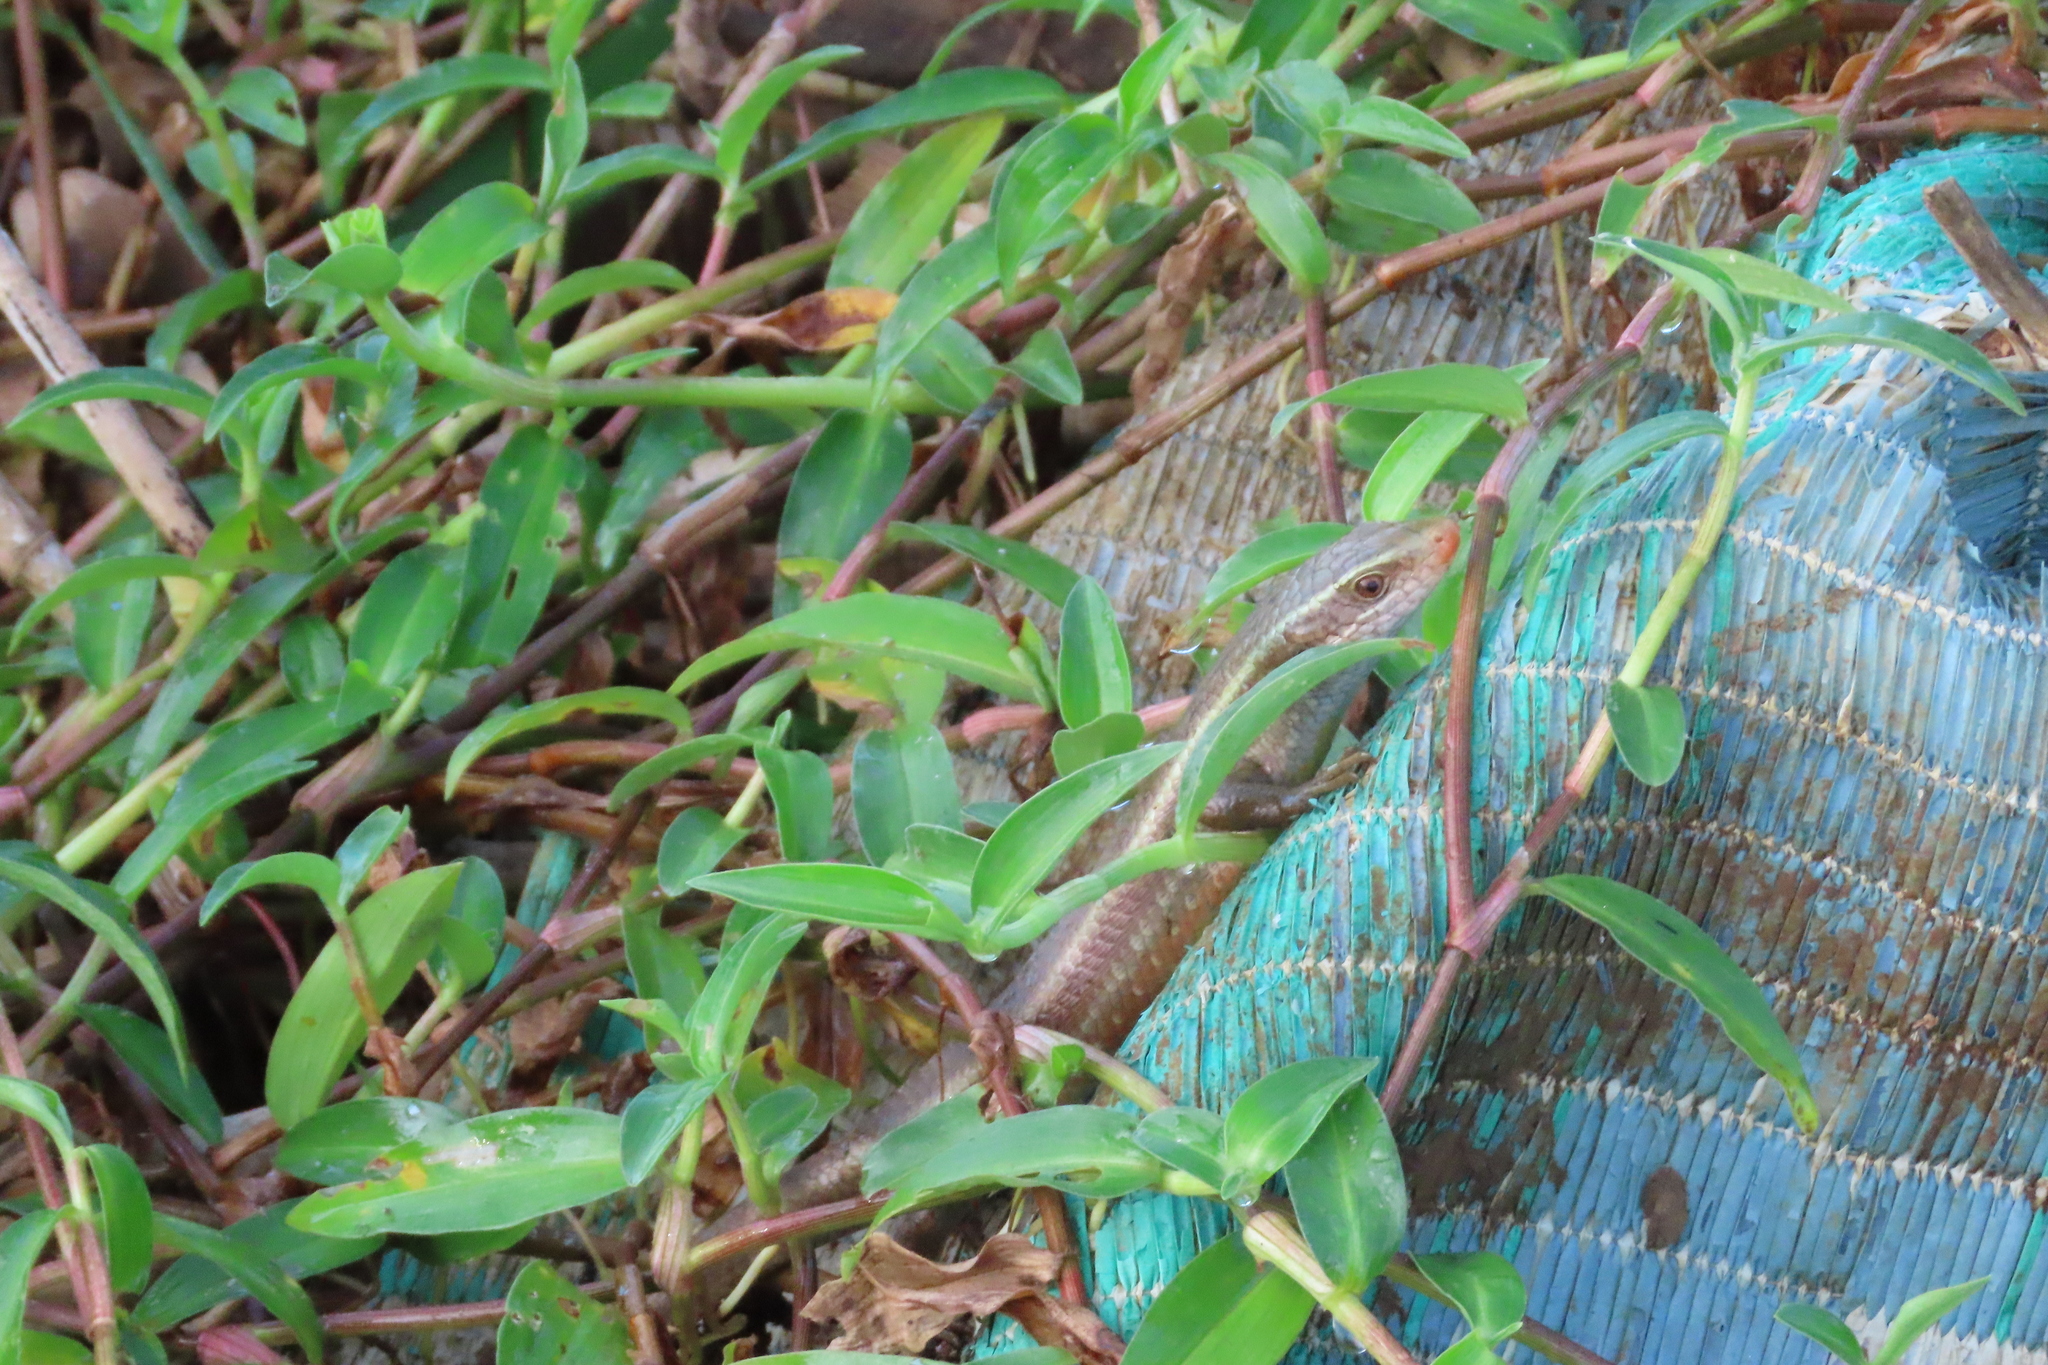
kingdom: Animalia
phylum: Chordata
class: Squamata
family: Scincidae
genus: Eutropis
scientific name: Eutropis carinata
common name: Keeled indian mabuya
